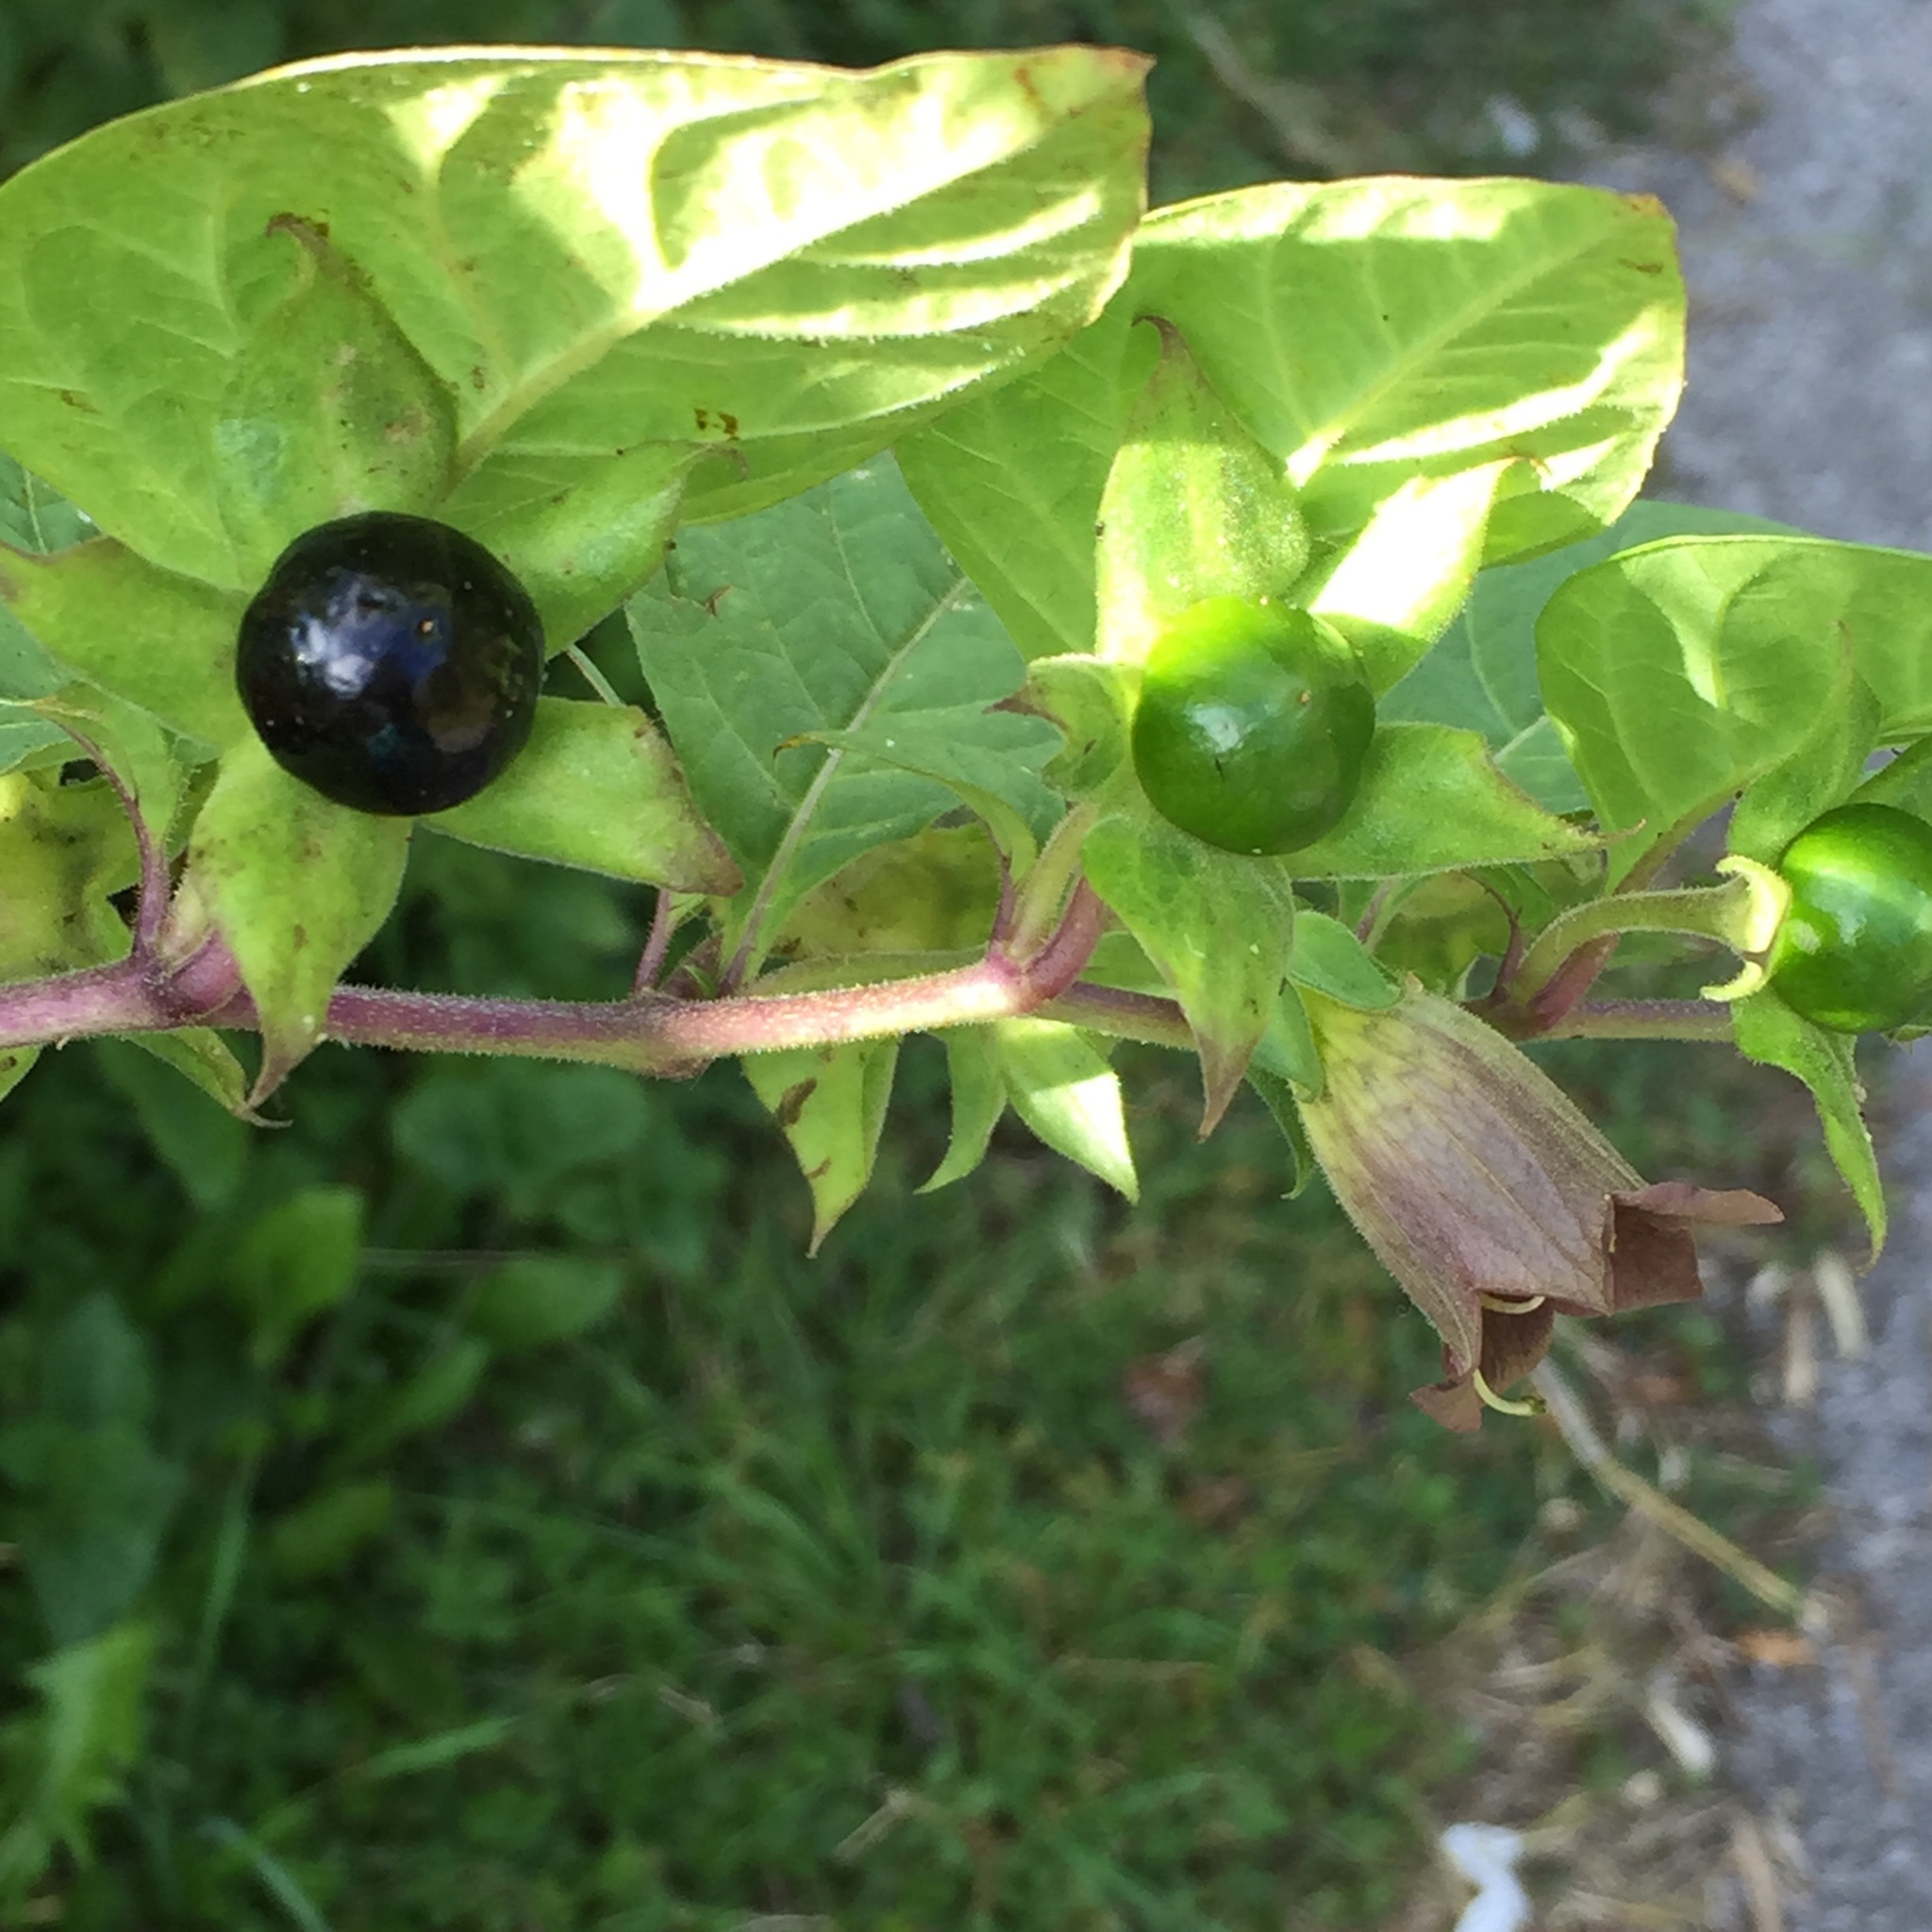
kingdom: Plantae
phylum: Tracheophyta
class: Magnoliopsida
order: Solanales
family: Solanaceae
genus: Atropa
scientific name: Atropa belladonna
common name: Deadly nightshade
